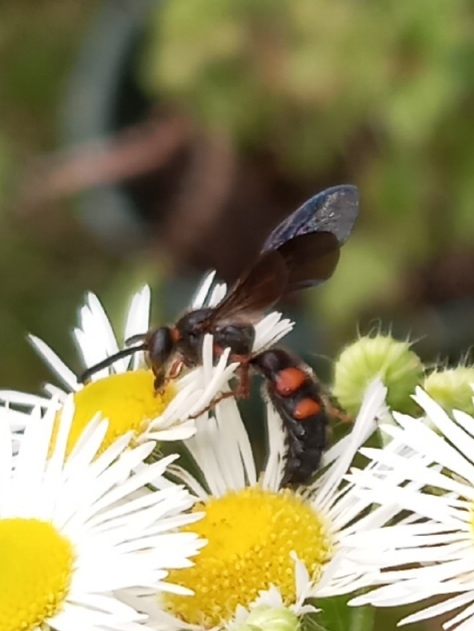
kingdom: Animalia
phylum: Arthropoda
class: Insecta
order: Hymenoptera
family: Scoliidae
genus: Scolia
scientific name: Scolia nobilitata
